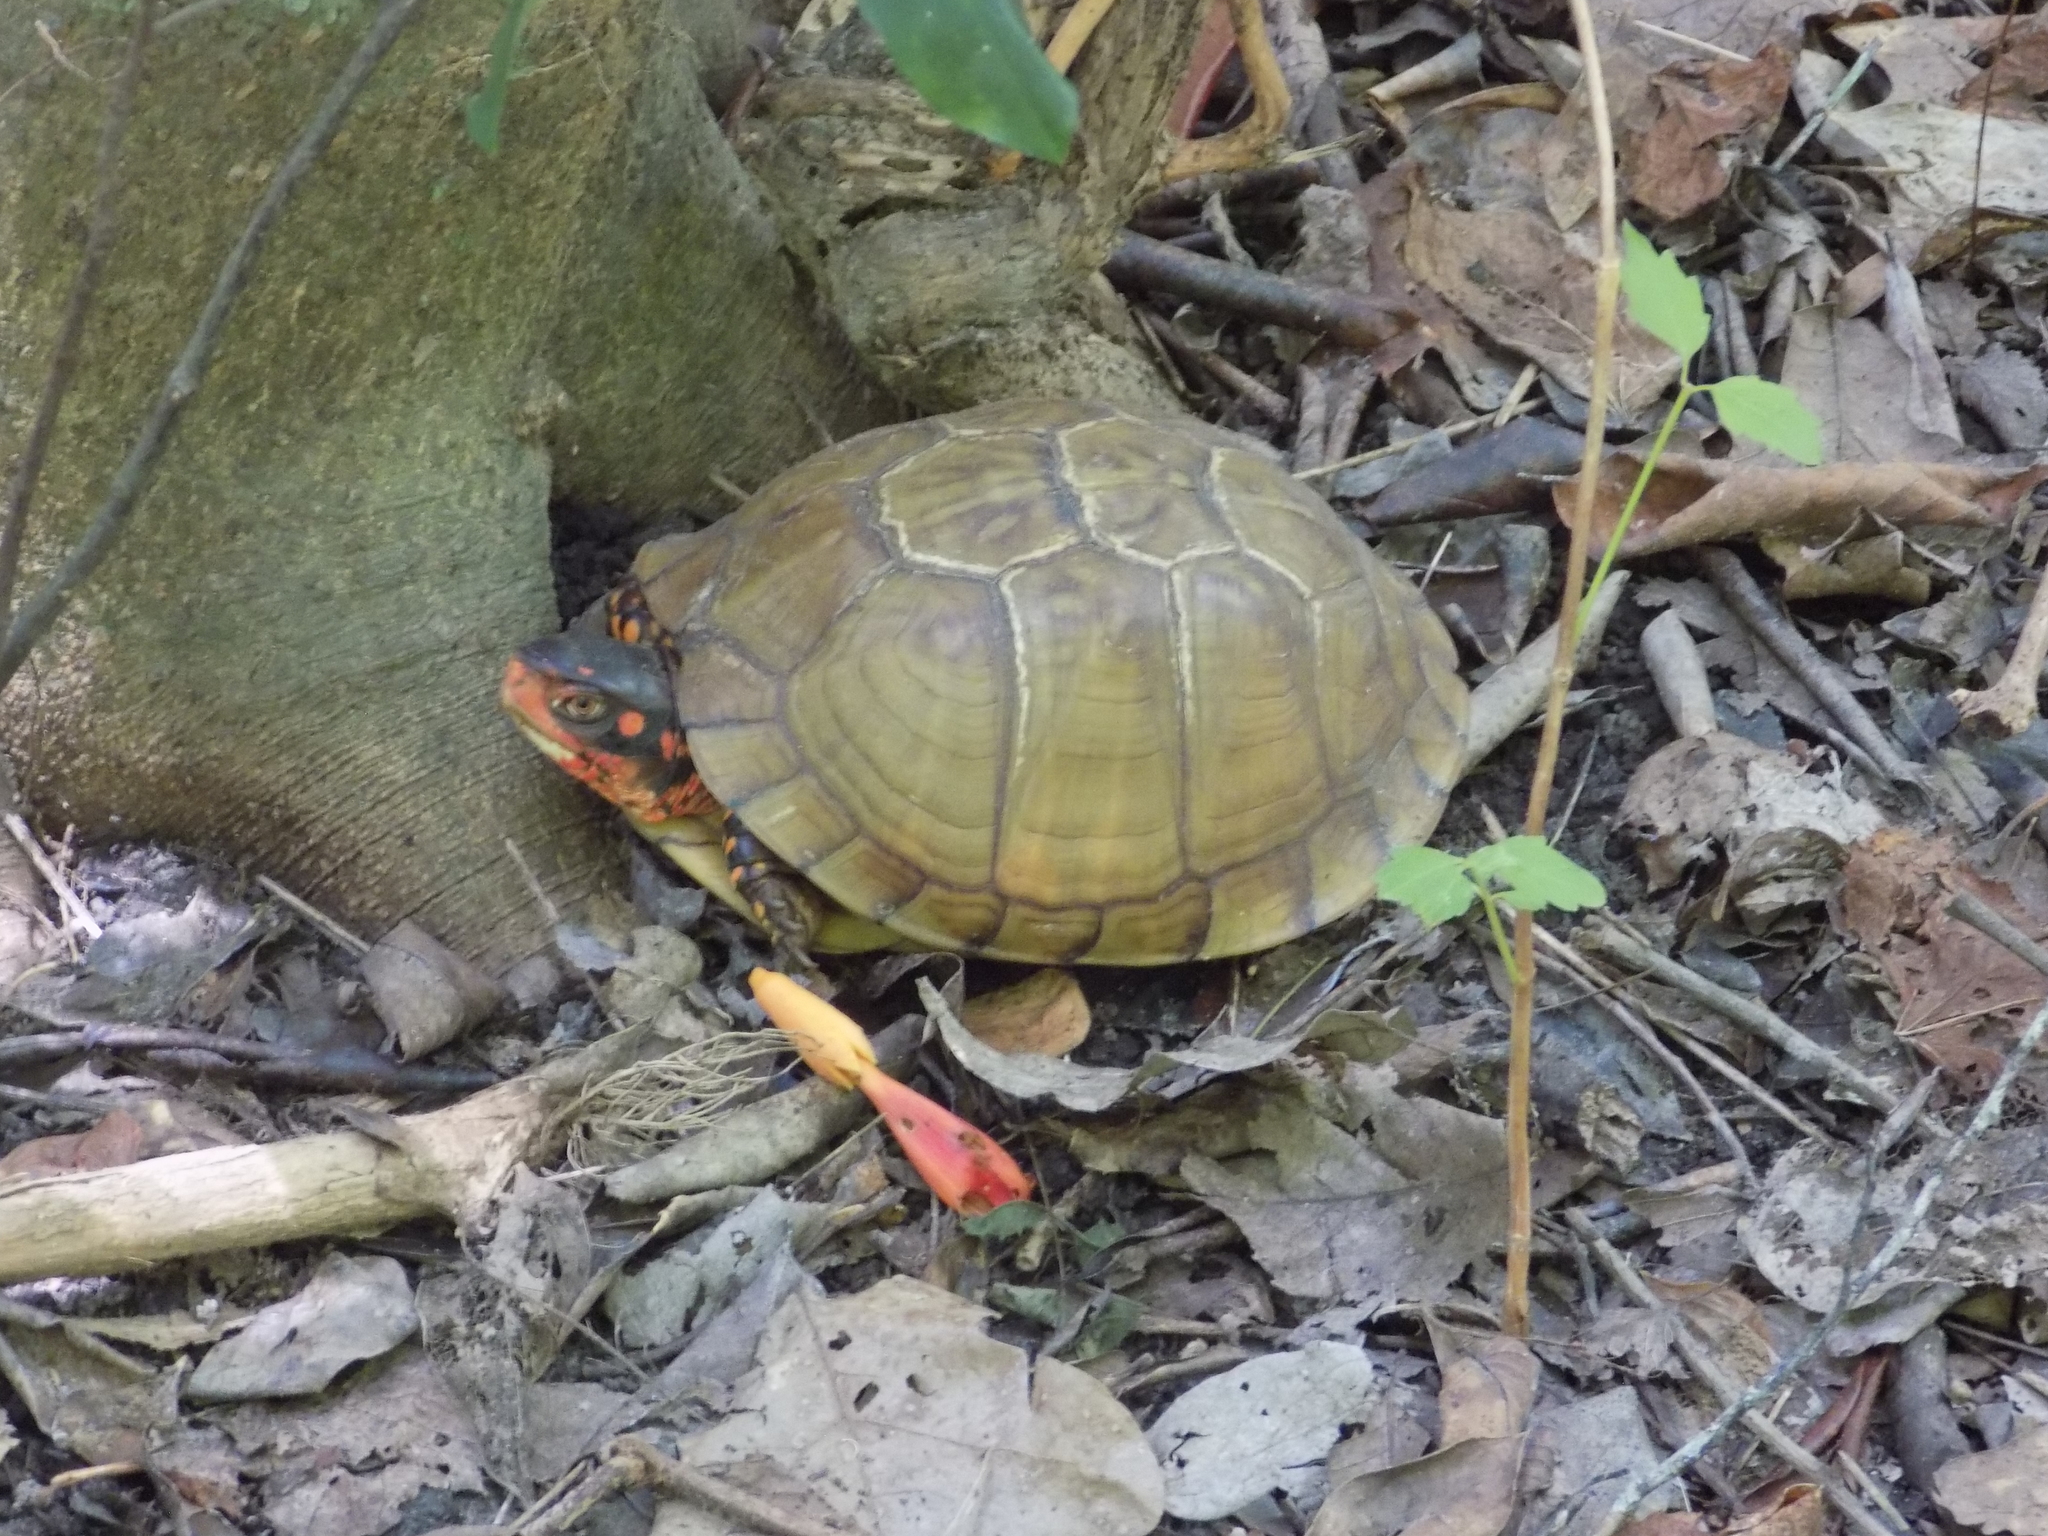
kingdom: Animalia
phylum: Chordata
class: Testudines
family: Emydidae
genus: Terrapene
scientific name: Terrapene carolina
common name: Common box turtle
